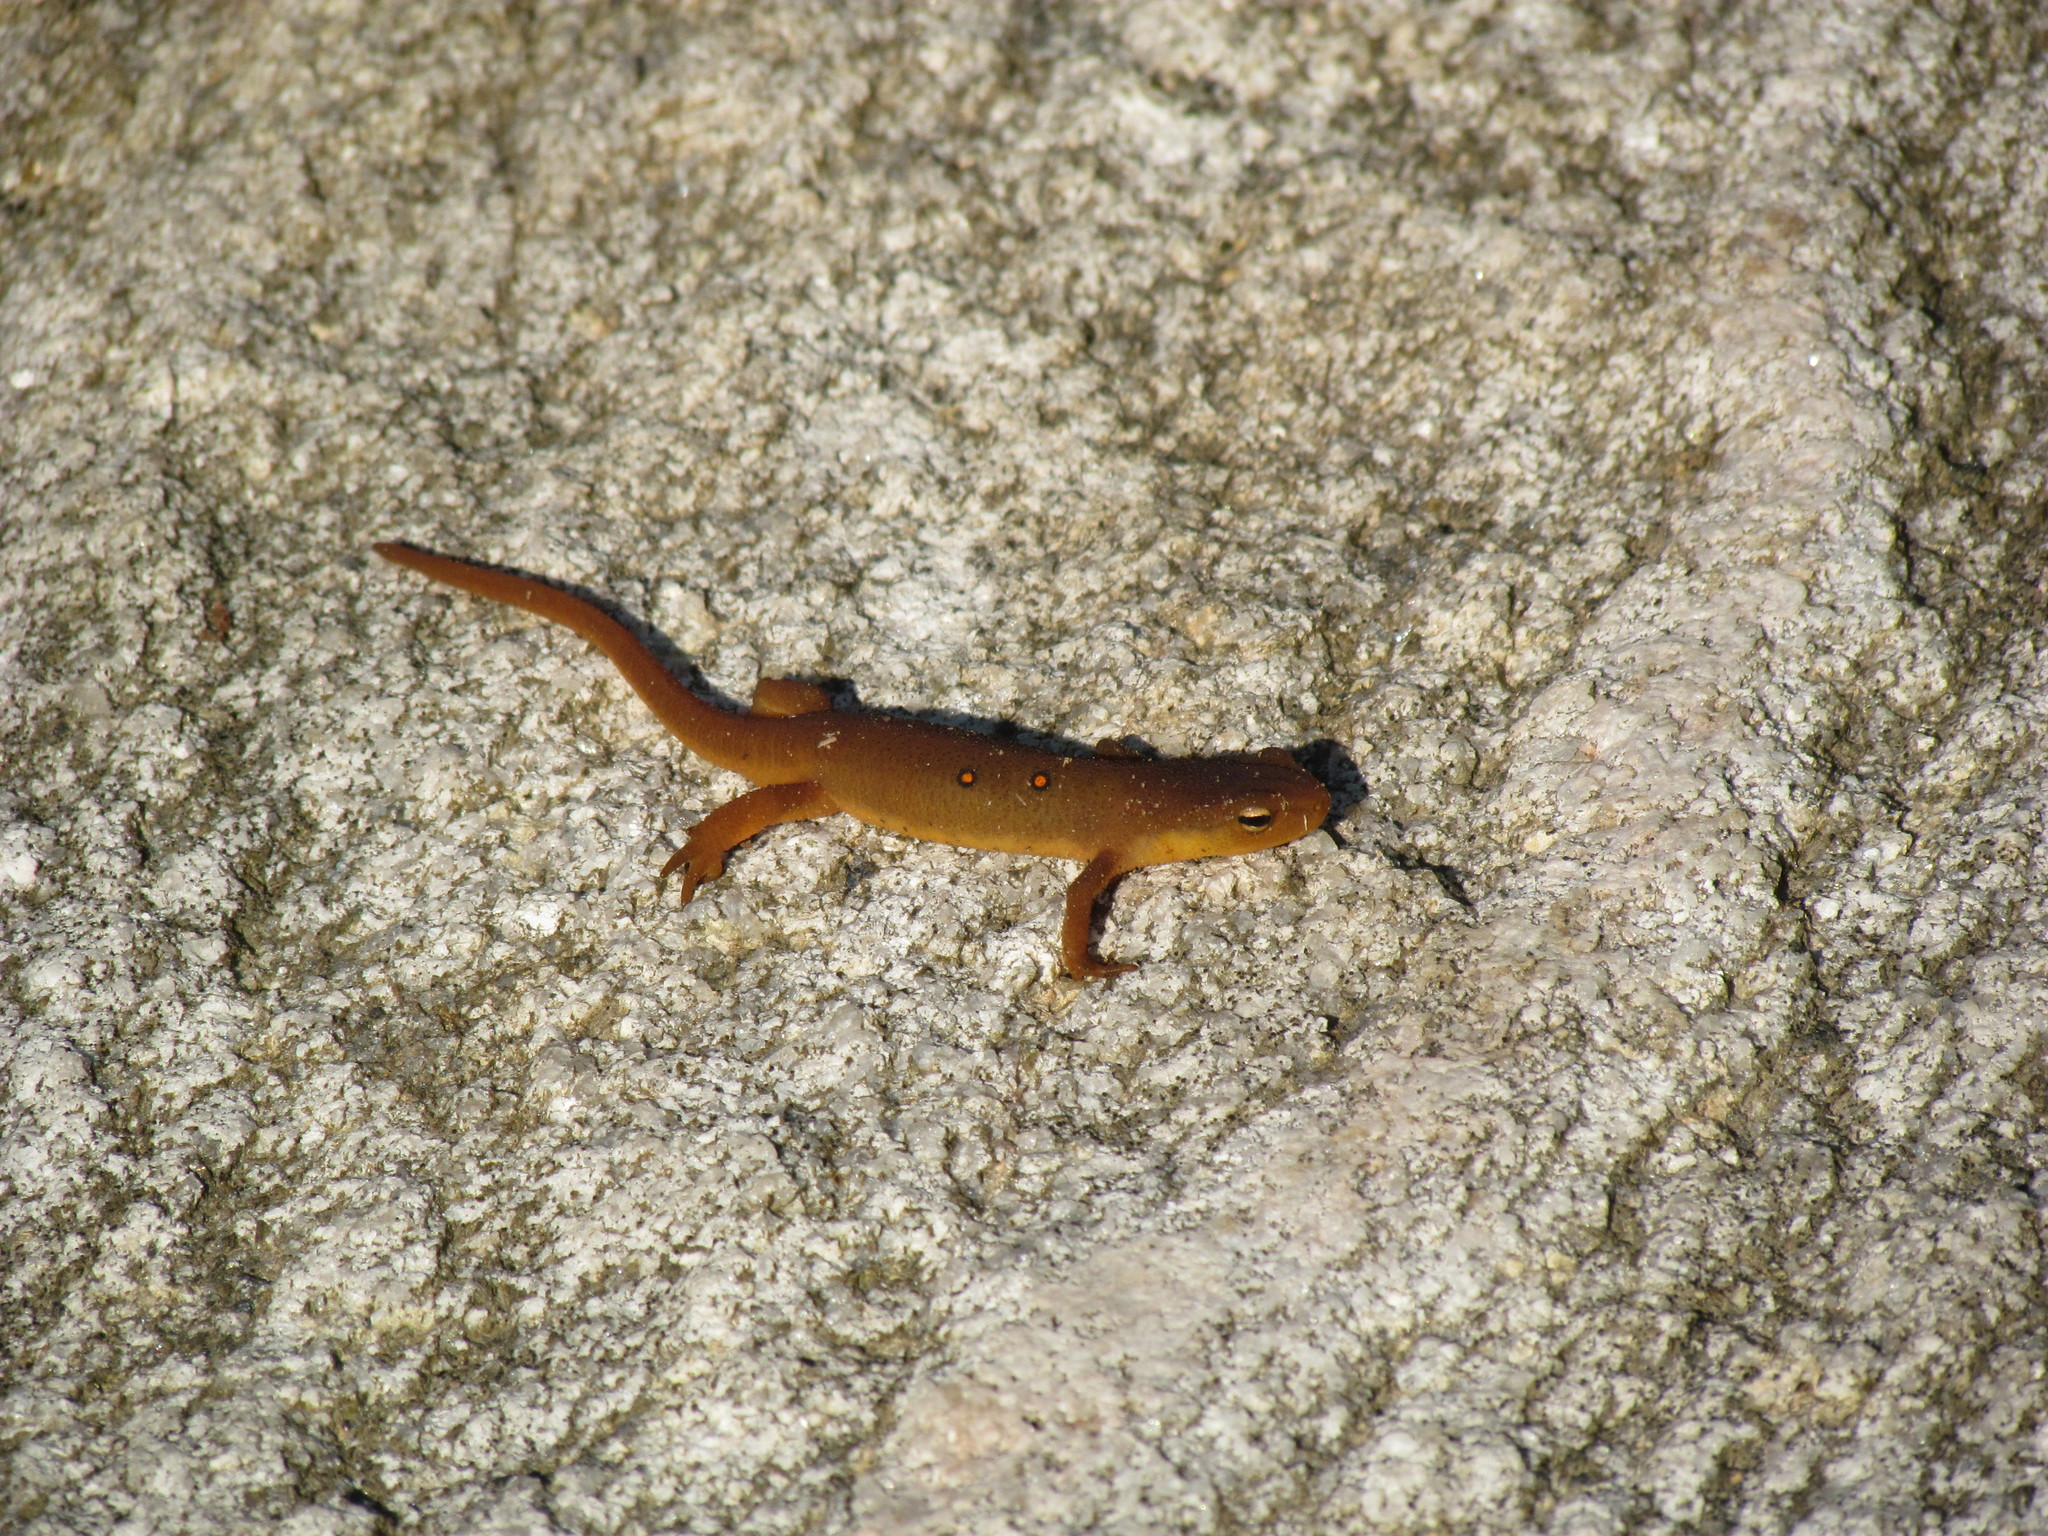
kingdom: Animalia
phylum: Chordata
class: Amphibia
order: Caudata
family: Salamandridae
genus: Notophthalmus
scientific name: Notophthalmus viridescens
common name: Eastern newt
